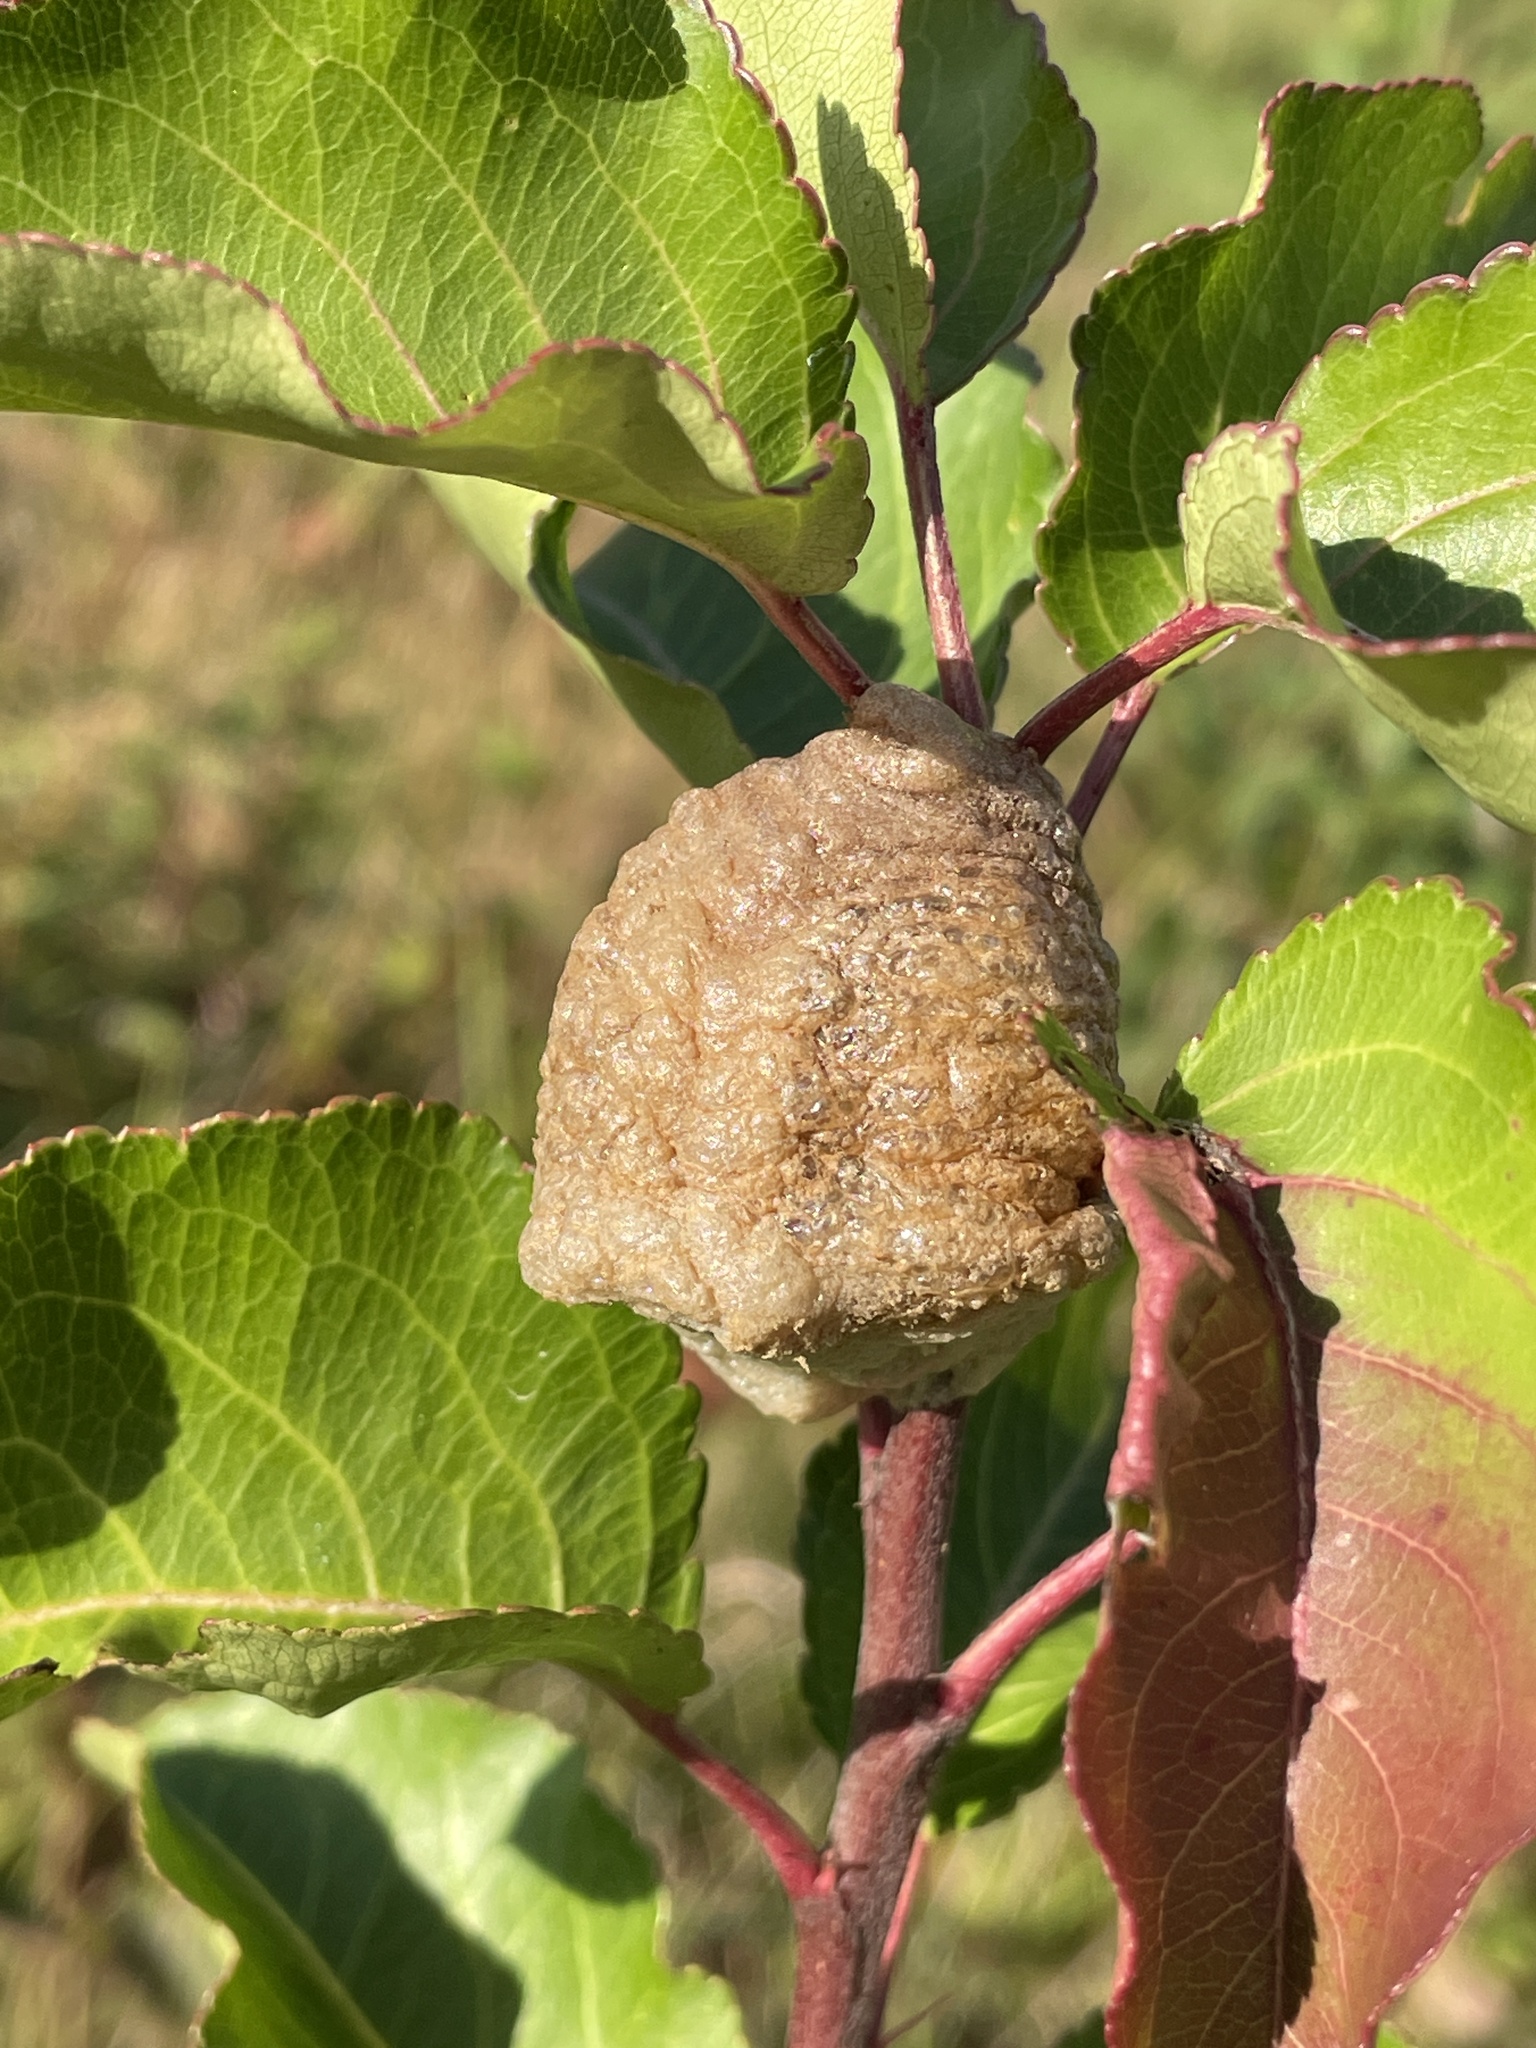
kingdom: Animalia
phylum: Arthropoda
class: Insecta
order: Mantodea
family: Mantidae
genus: Tenodera
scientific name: Tenodera sinensis
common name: Chinese mantis
